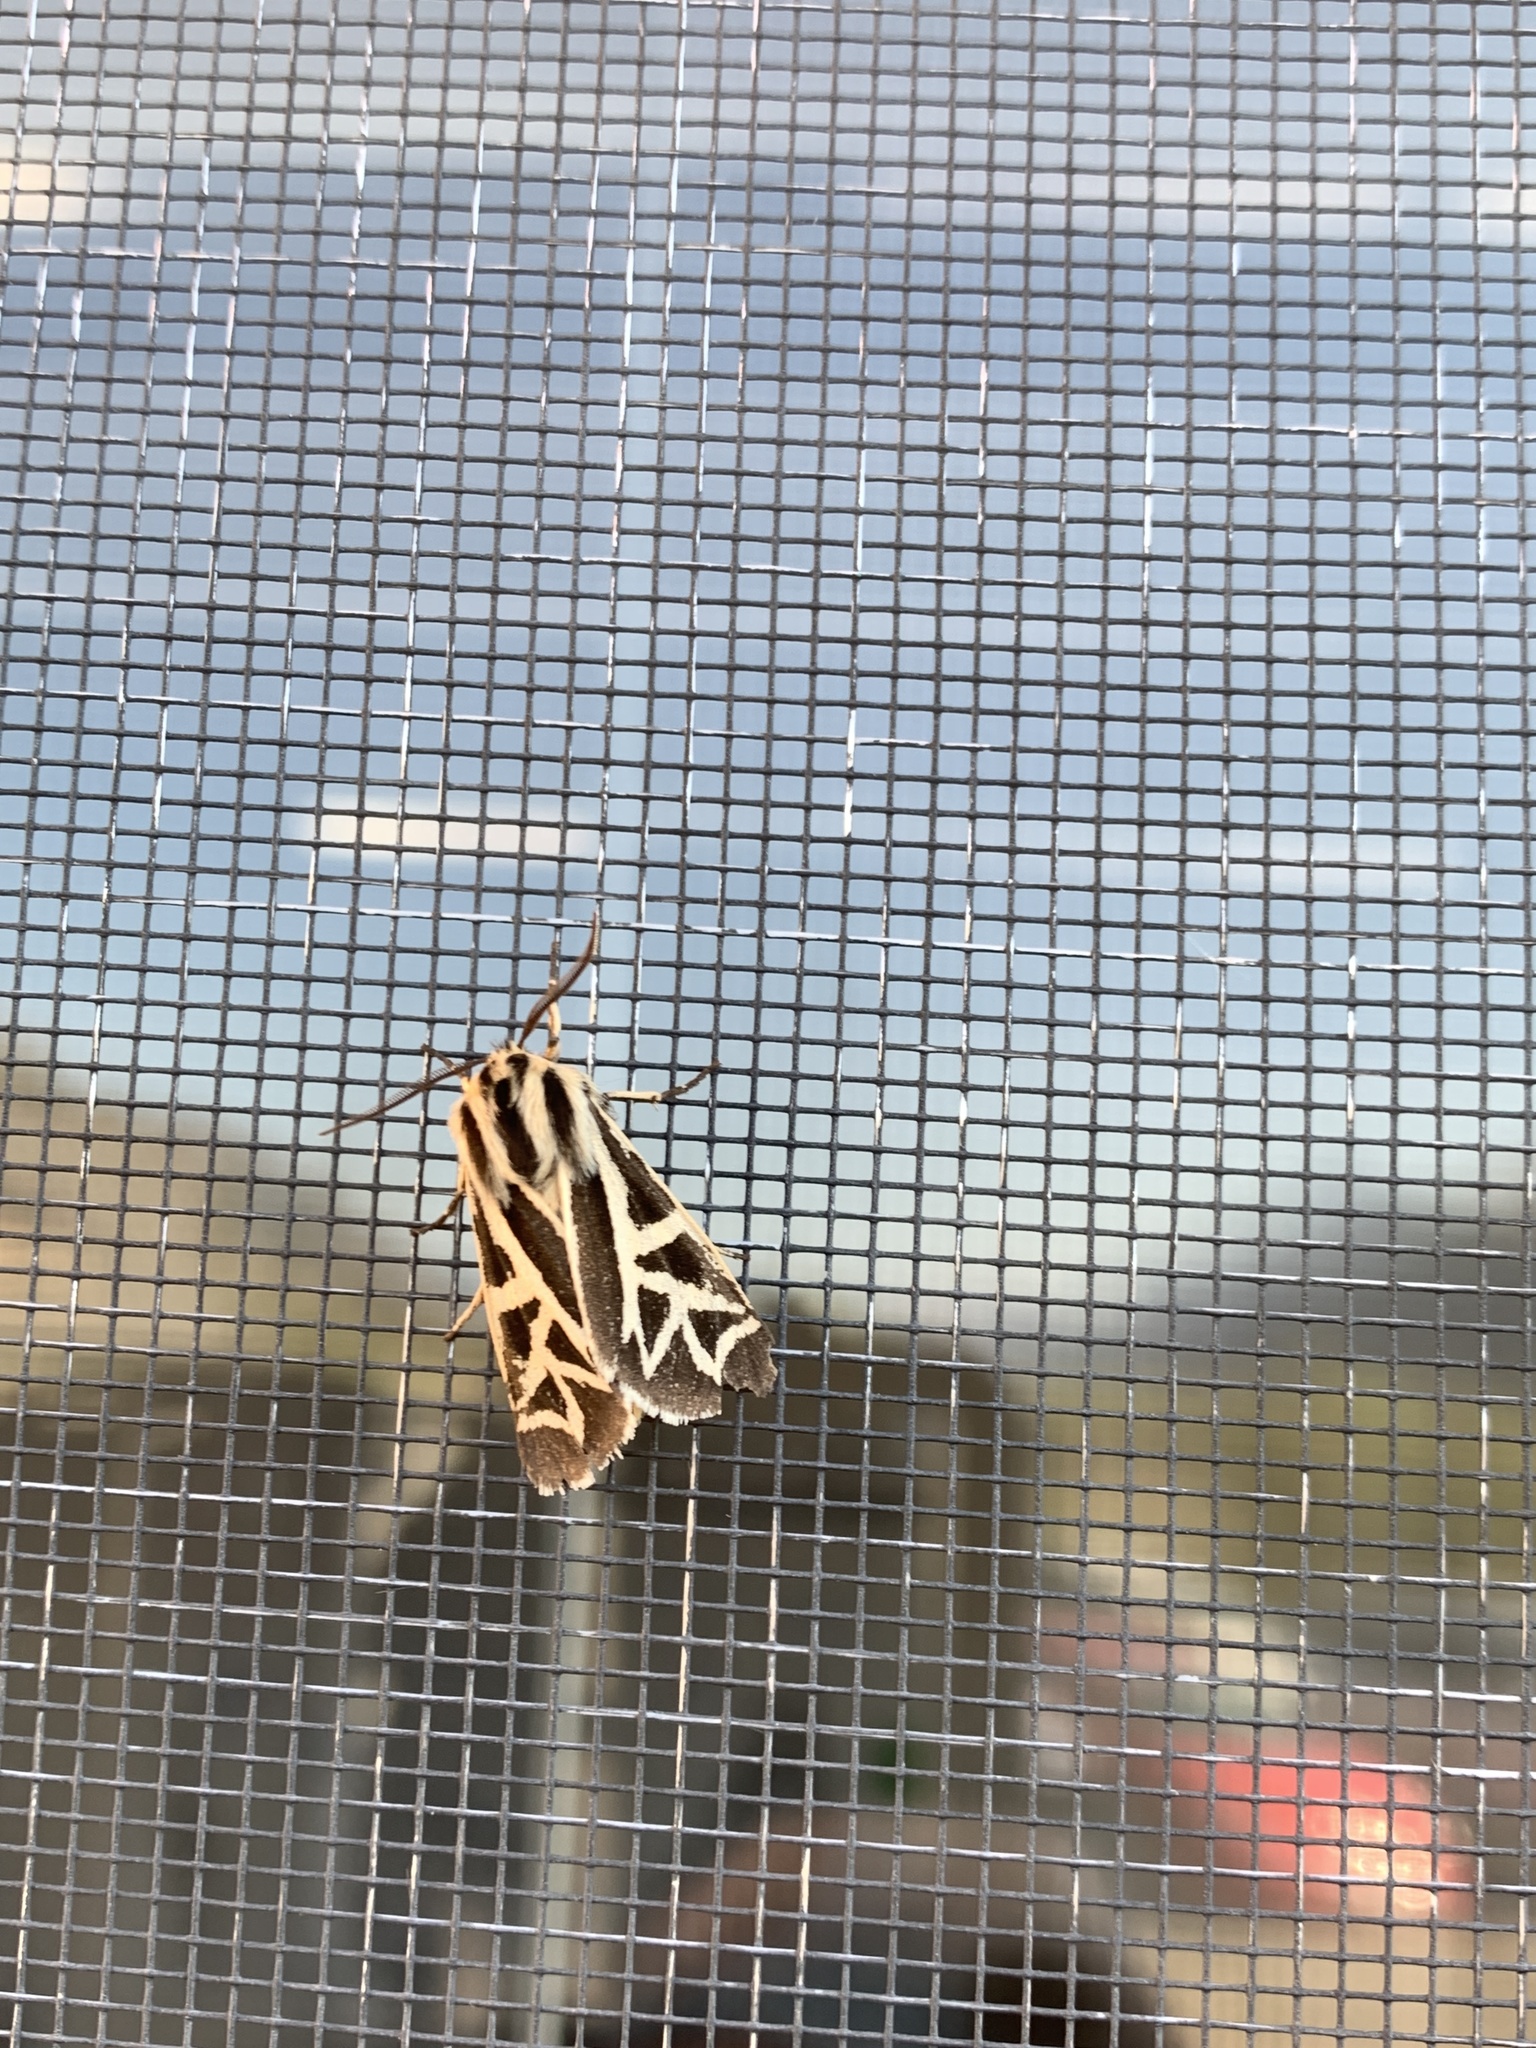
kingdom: Animalia
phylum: Arthropoda
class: Insecta
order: Lepidoptera
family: Erebidae
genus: Apantesis
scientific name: Apantesis
